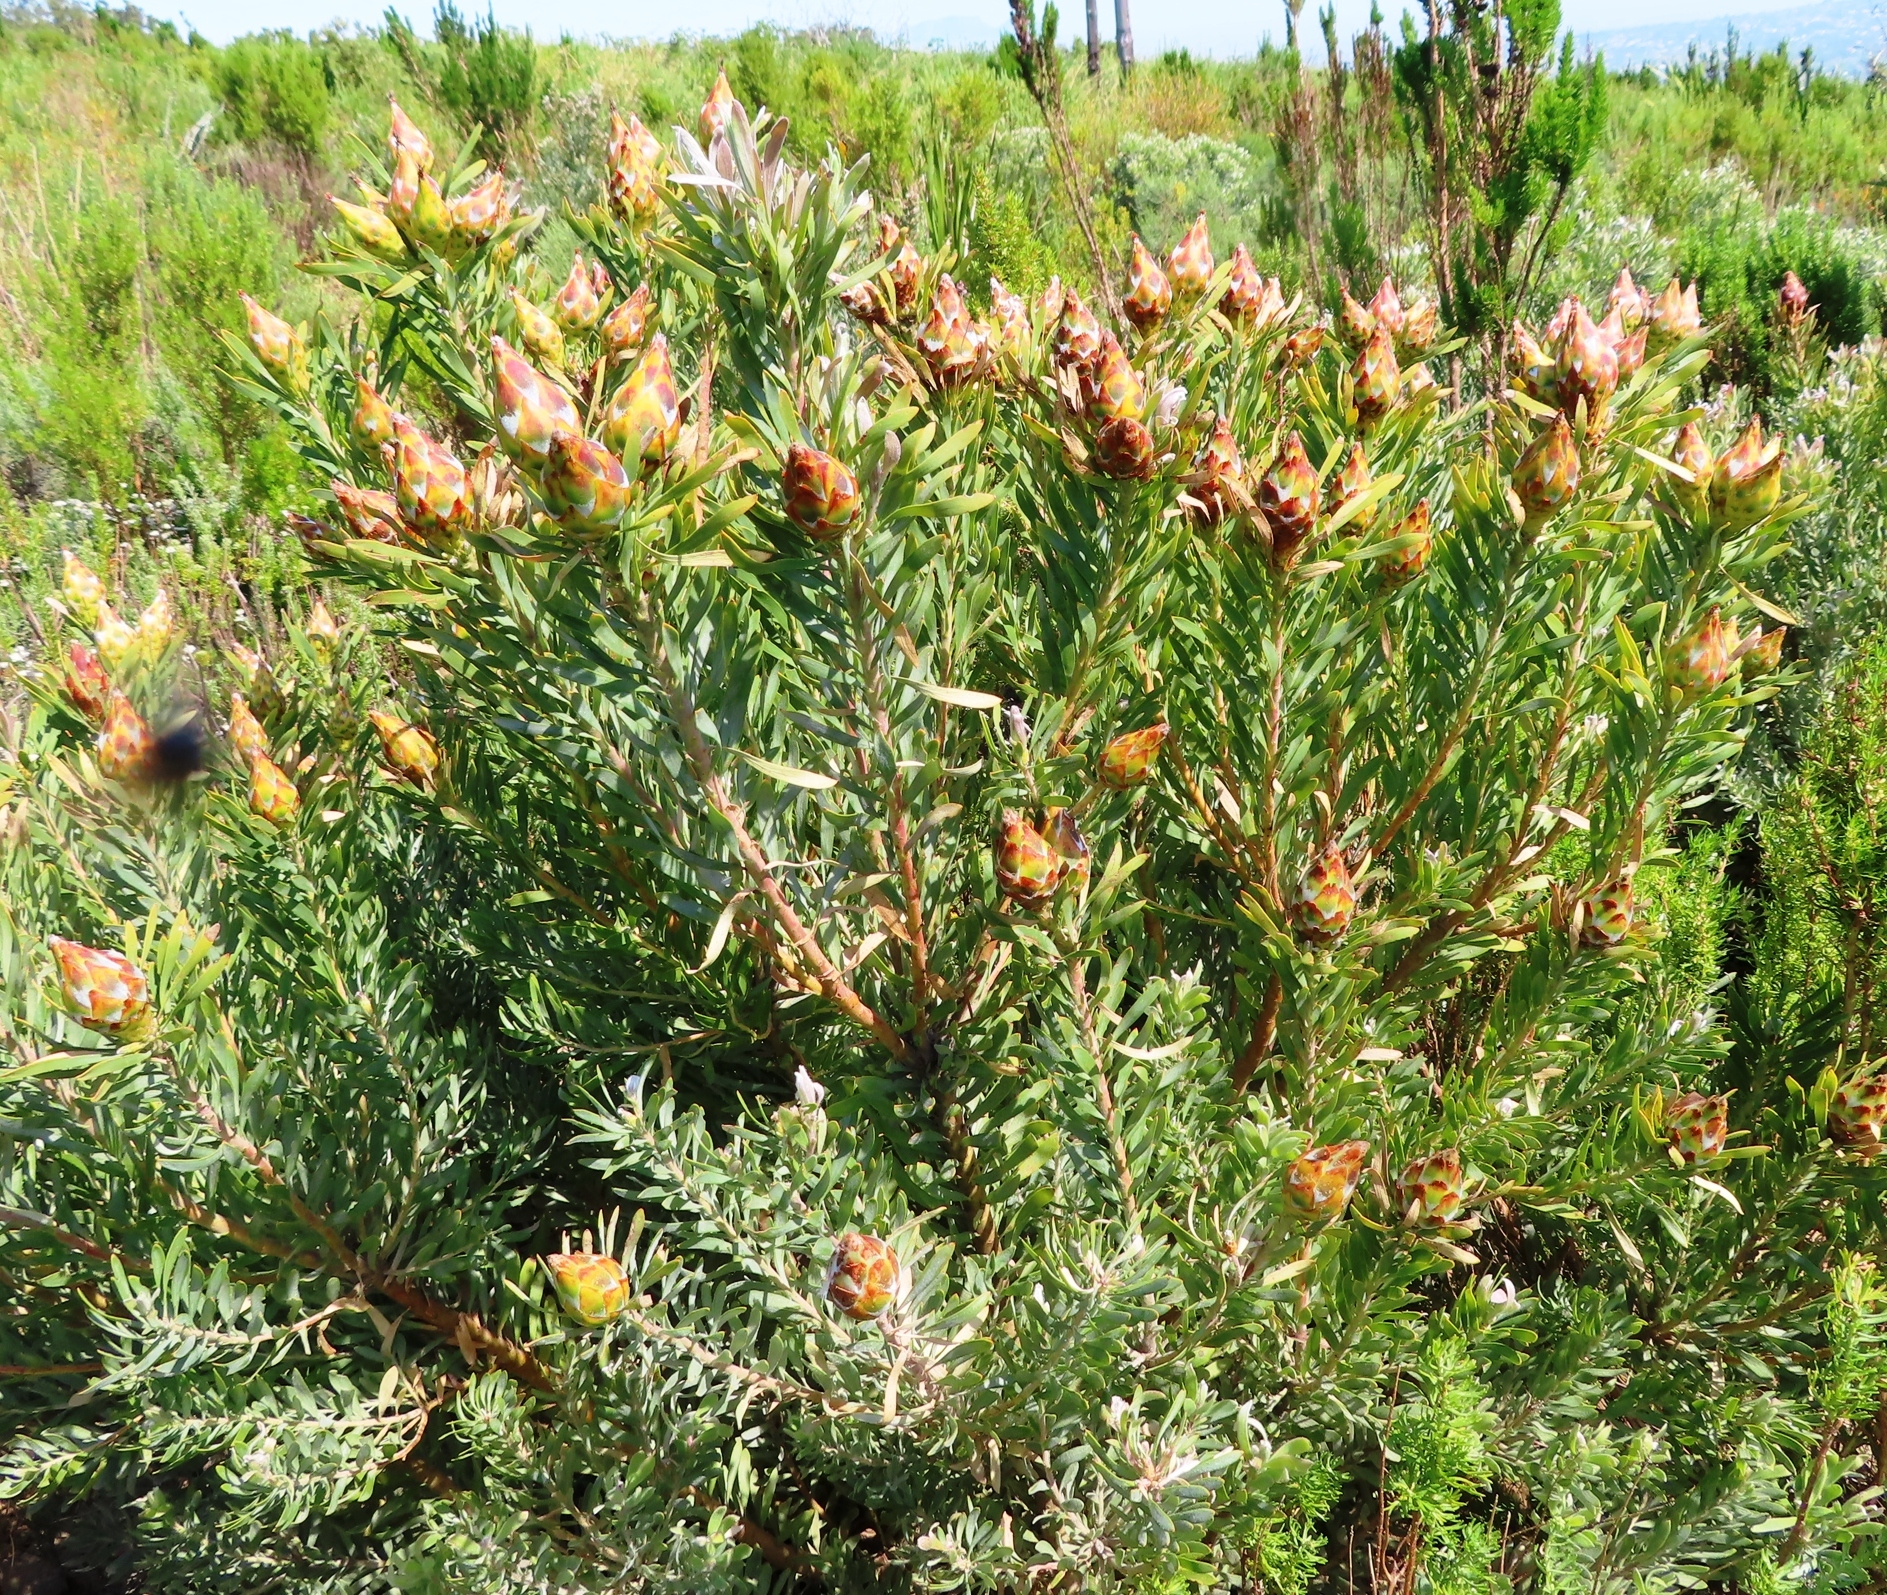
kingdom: Plantae
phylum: Tracheophyta
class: Magnoliopsida
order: Proteales
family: Proteaceae
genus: Leucadendron
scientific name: Leucadendron rubrum
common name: Spinning top
